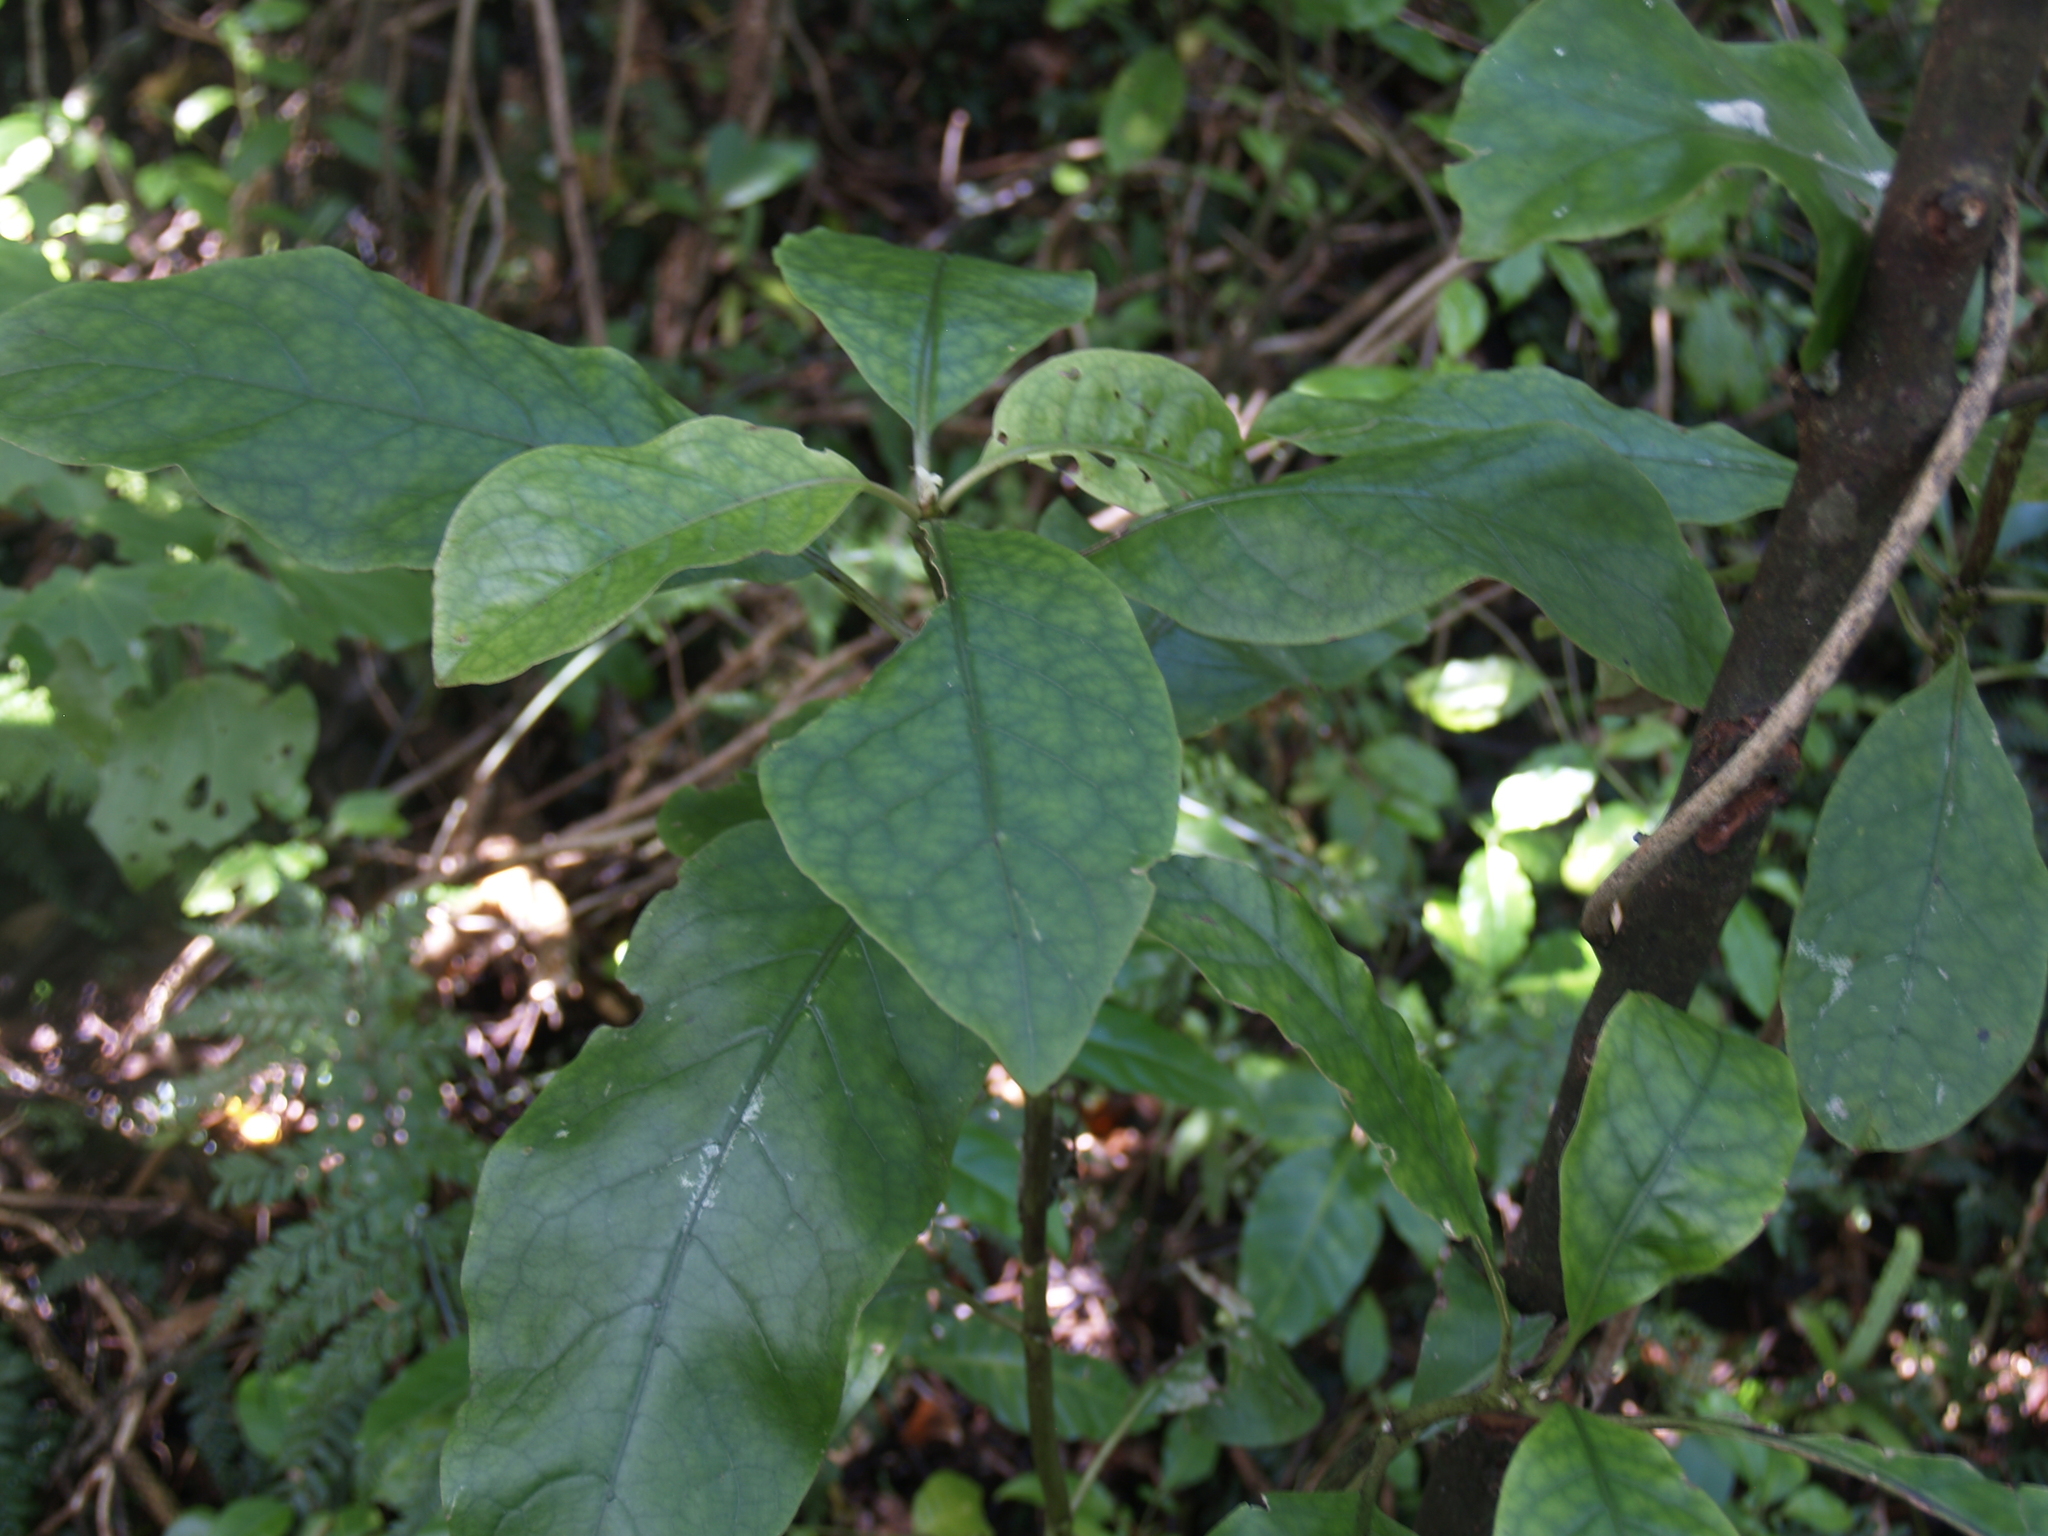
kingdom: Plantae
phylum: Tracheophyta
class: Magnoliopsida
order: Gentianales
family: Rubiaceae
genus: Coprosma
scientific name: Coprosma autumnalis
